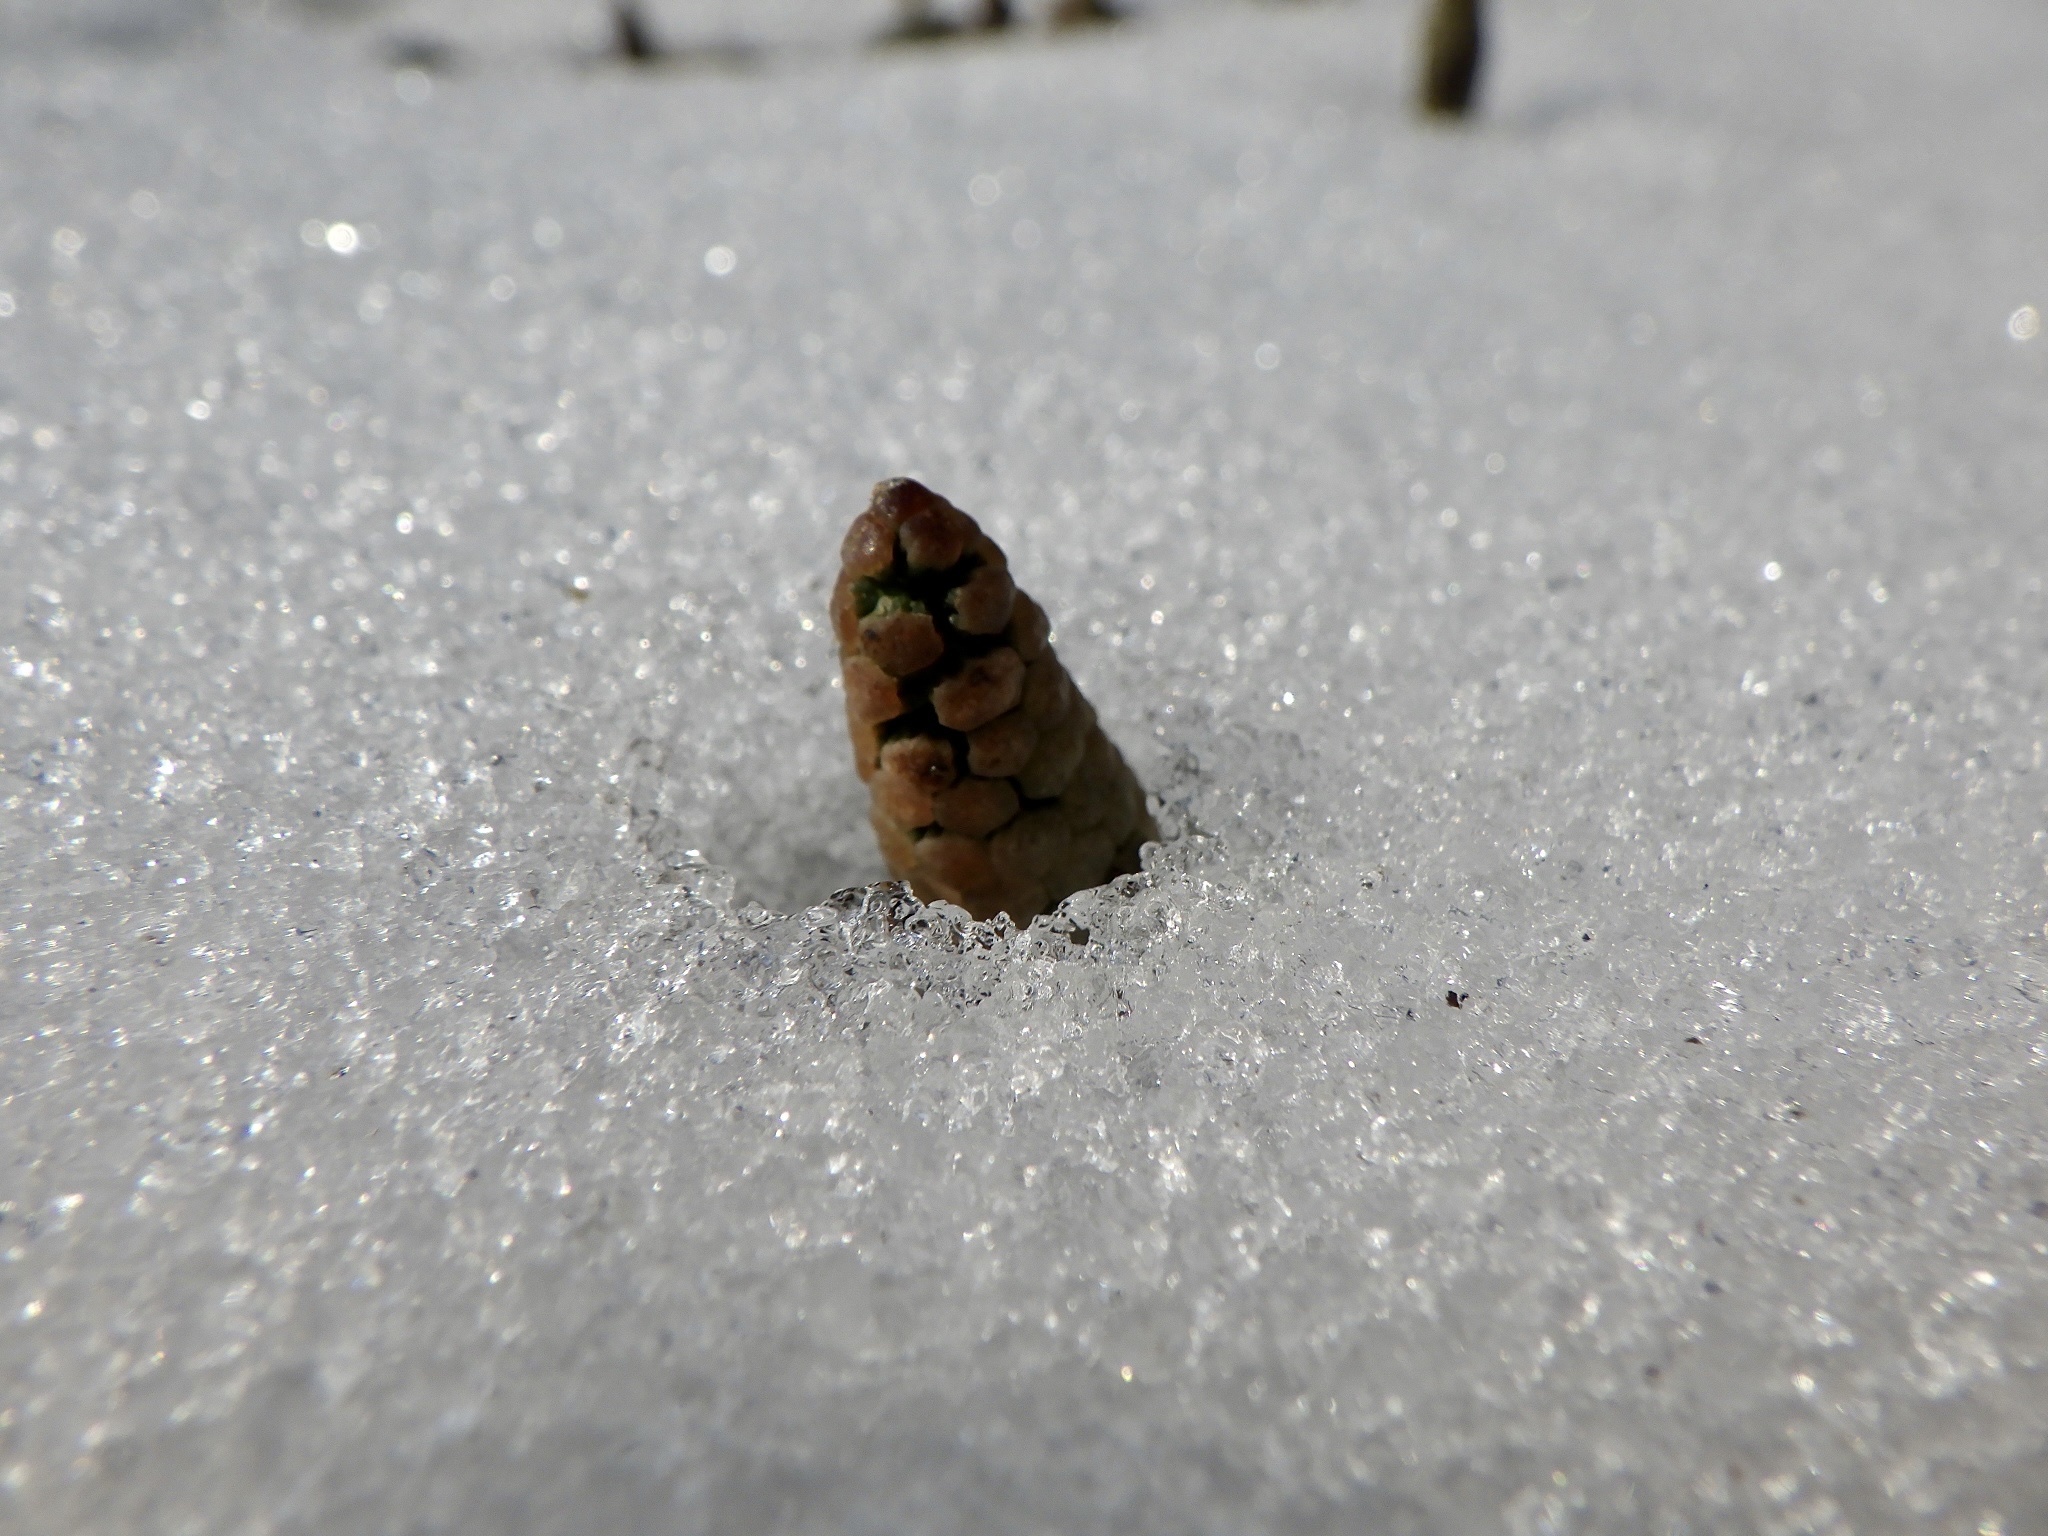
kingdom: Plantae
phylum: Tracheophyta
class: Polypodiopsida
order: Equisetales
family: Equisetaceae
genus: Equisetum
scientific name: Equisetum arvense
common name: Field horsetail
